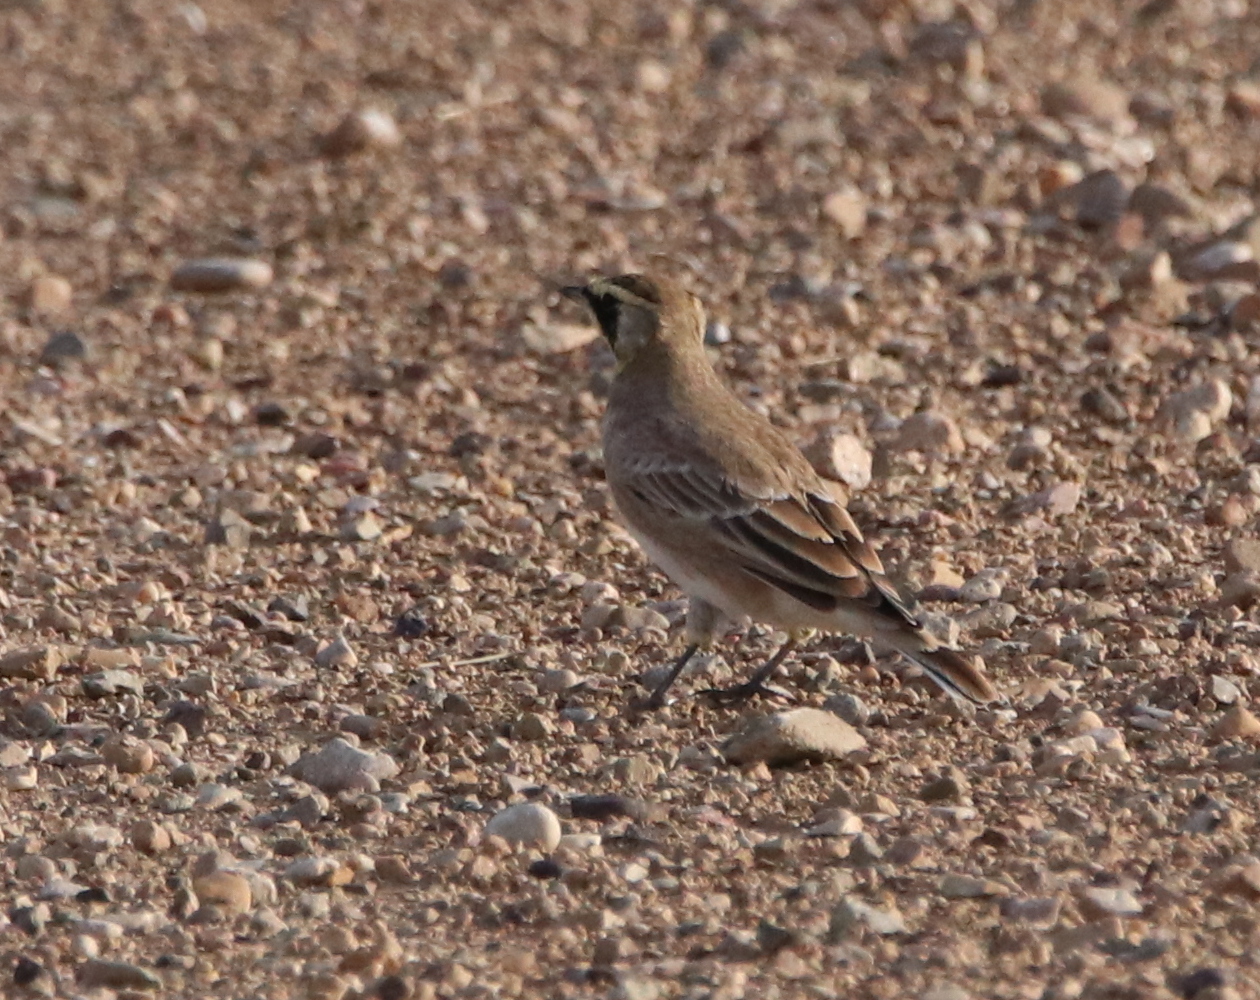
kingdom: Animalia
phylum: Chordata
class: Aves
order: Passeriformes
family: Alaudidae
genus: Eremophila
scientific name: Eremophila alpestris
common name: Horned lark
